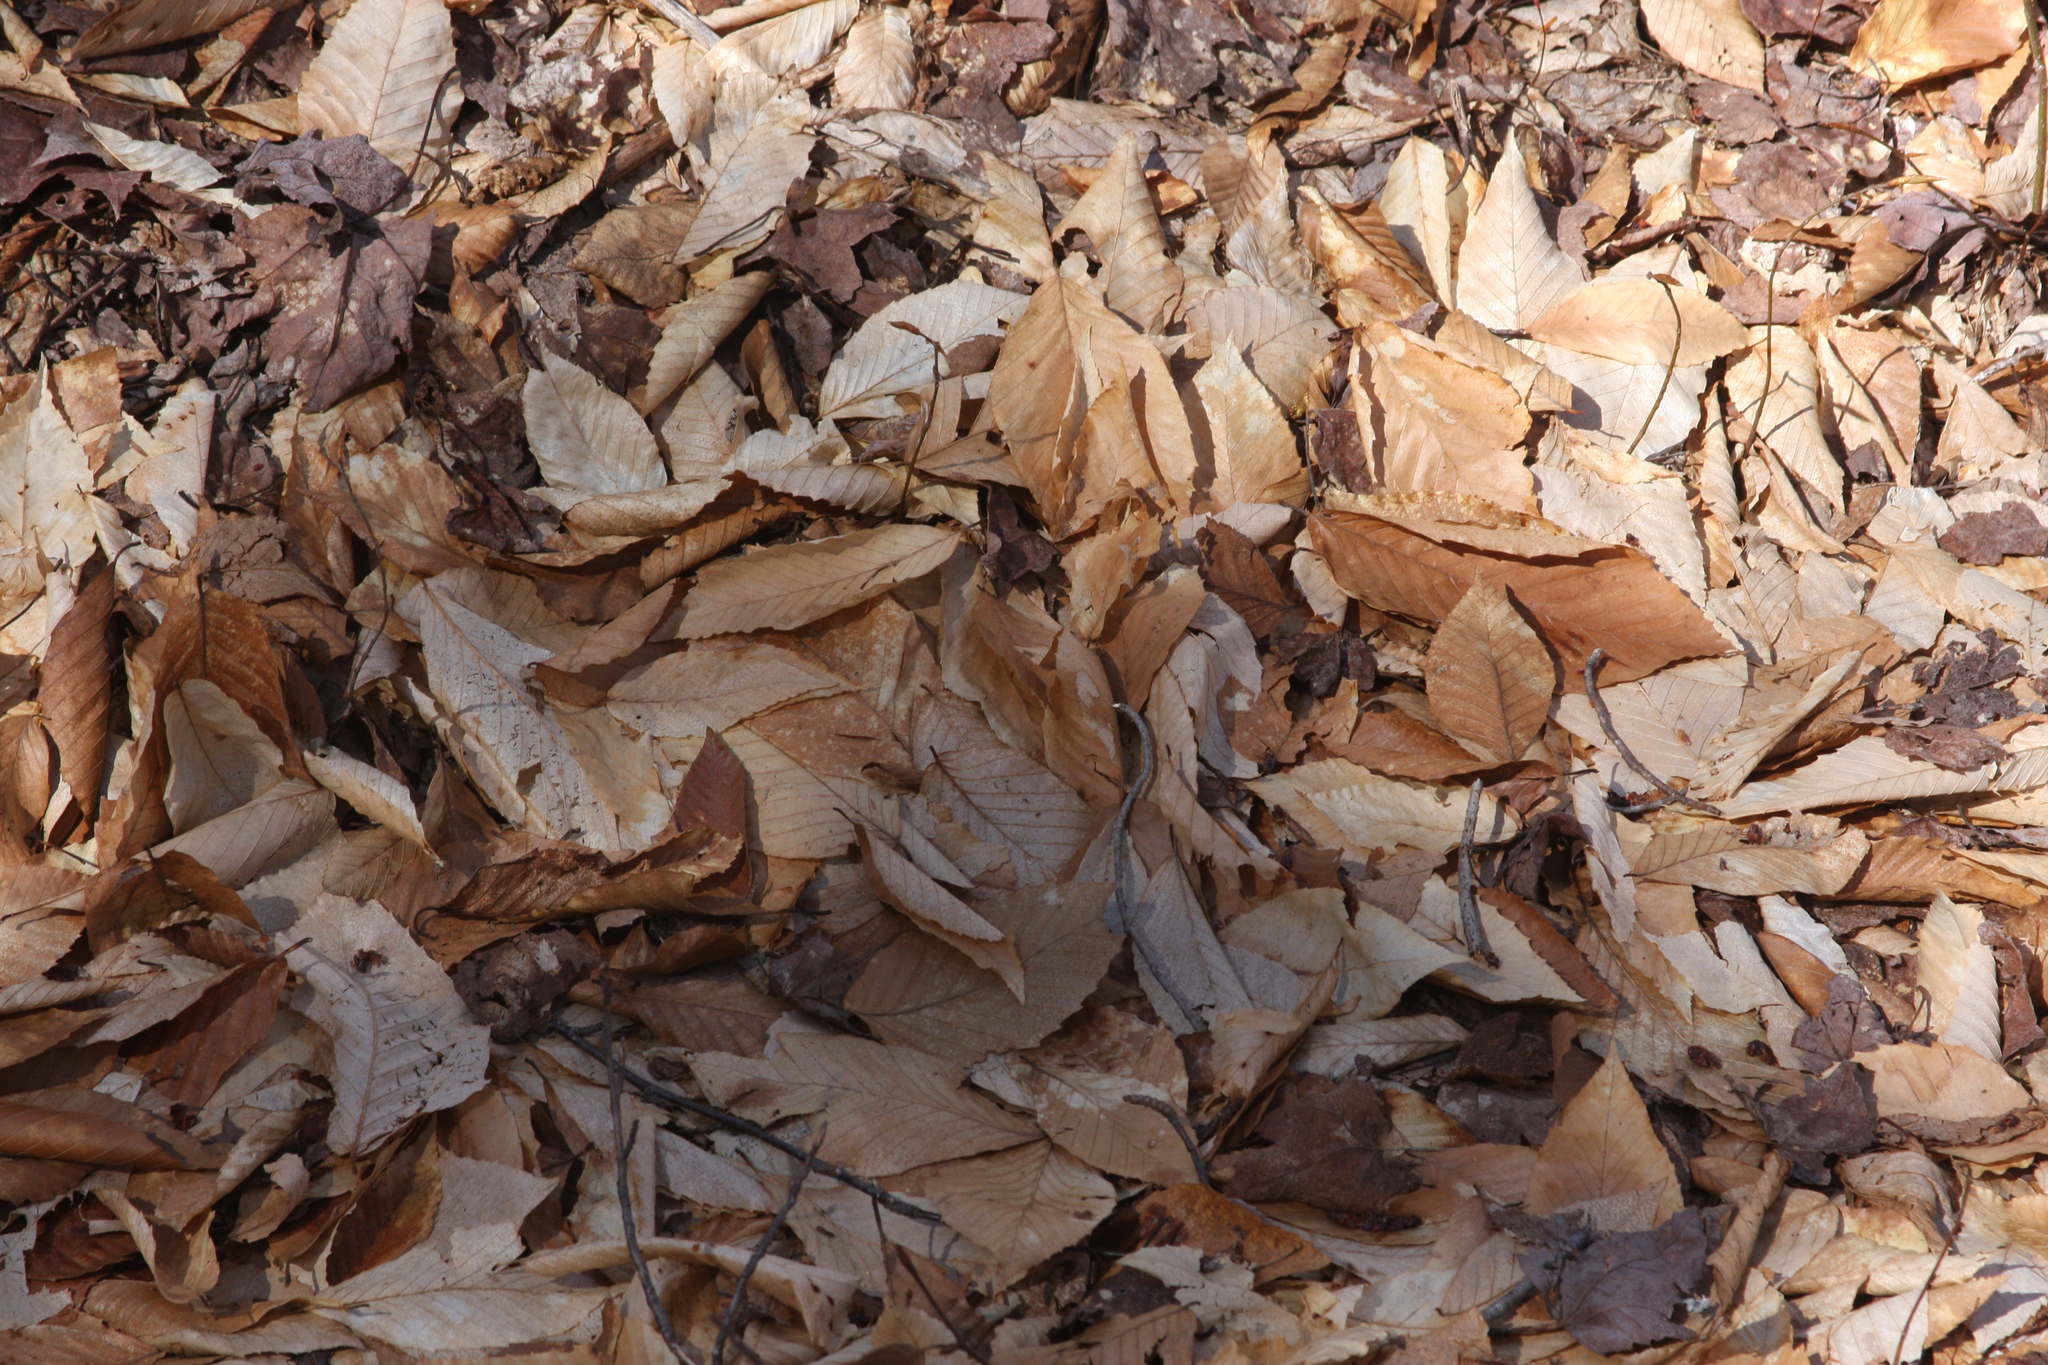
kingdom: Plantae
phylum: Tracheophyta
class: Magnoliopsida
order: Fagales
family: Fagaceae
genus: Fagus
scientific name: Fagus grandifolia
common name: American beech
